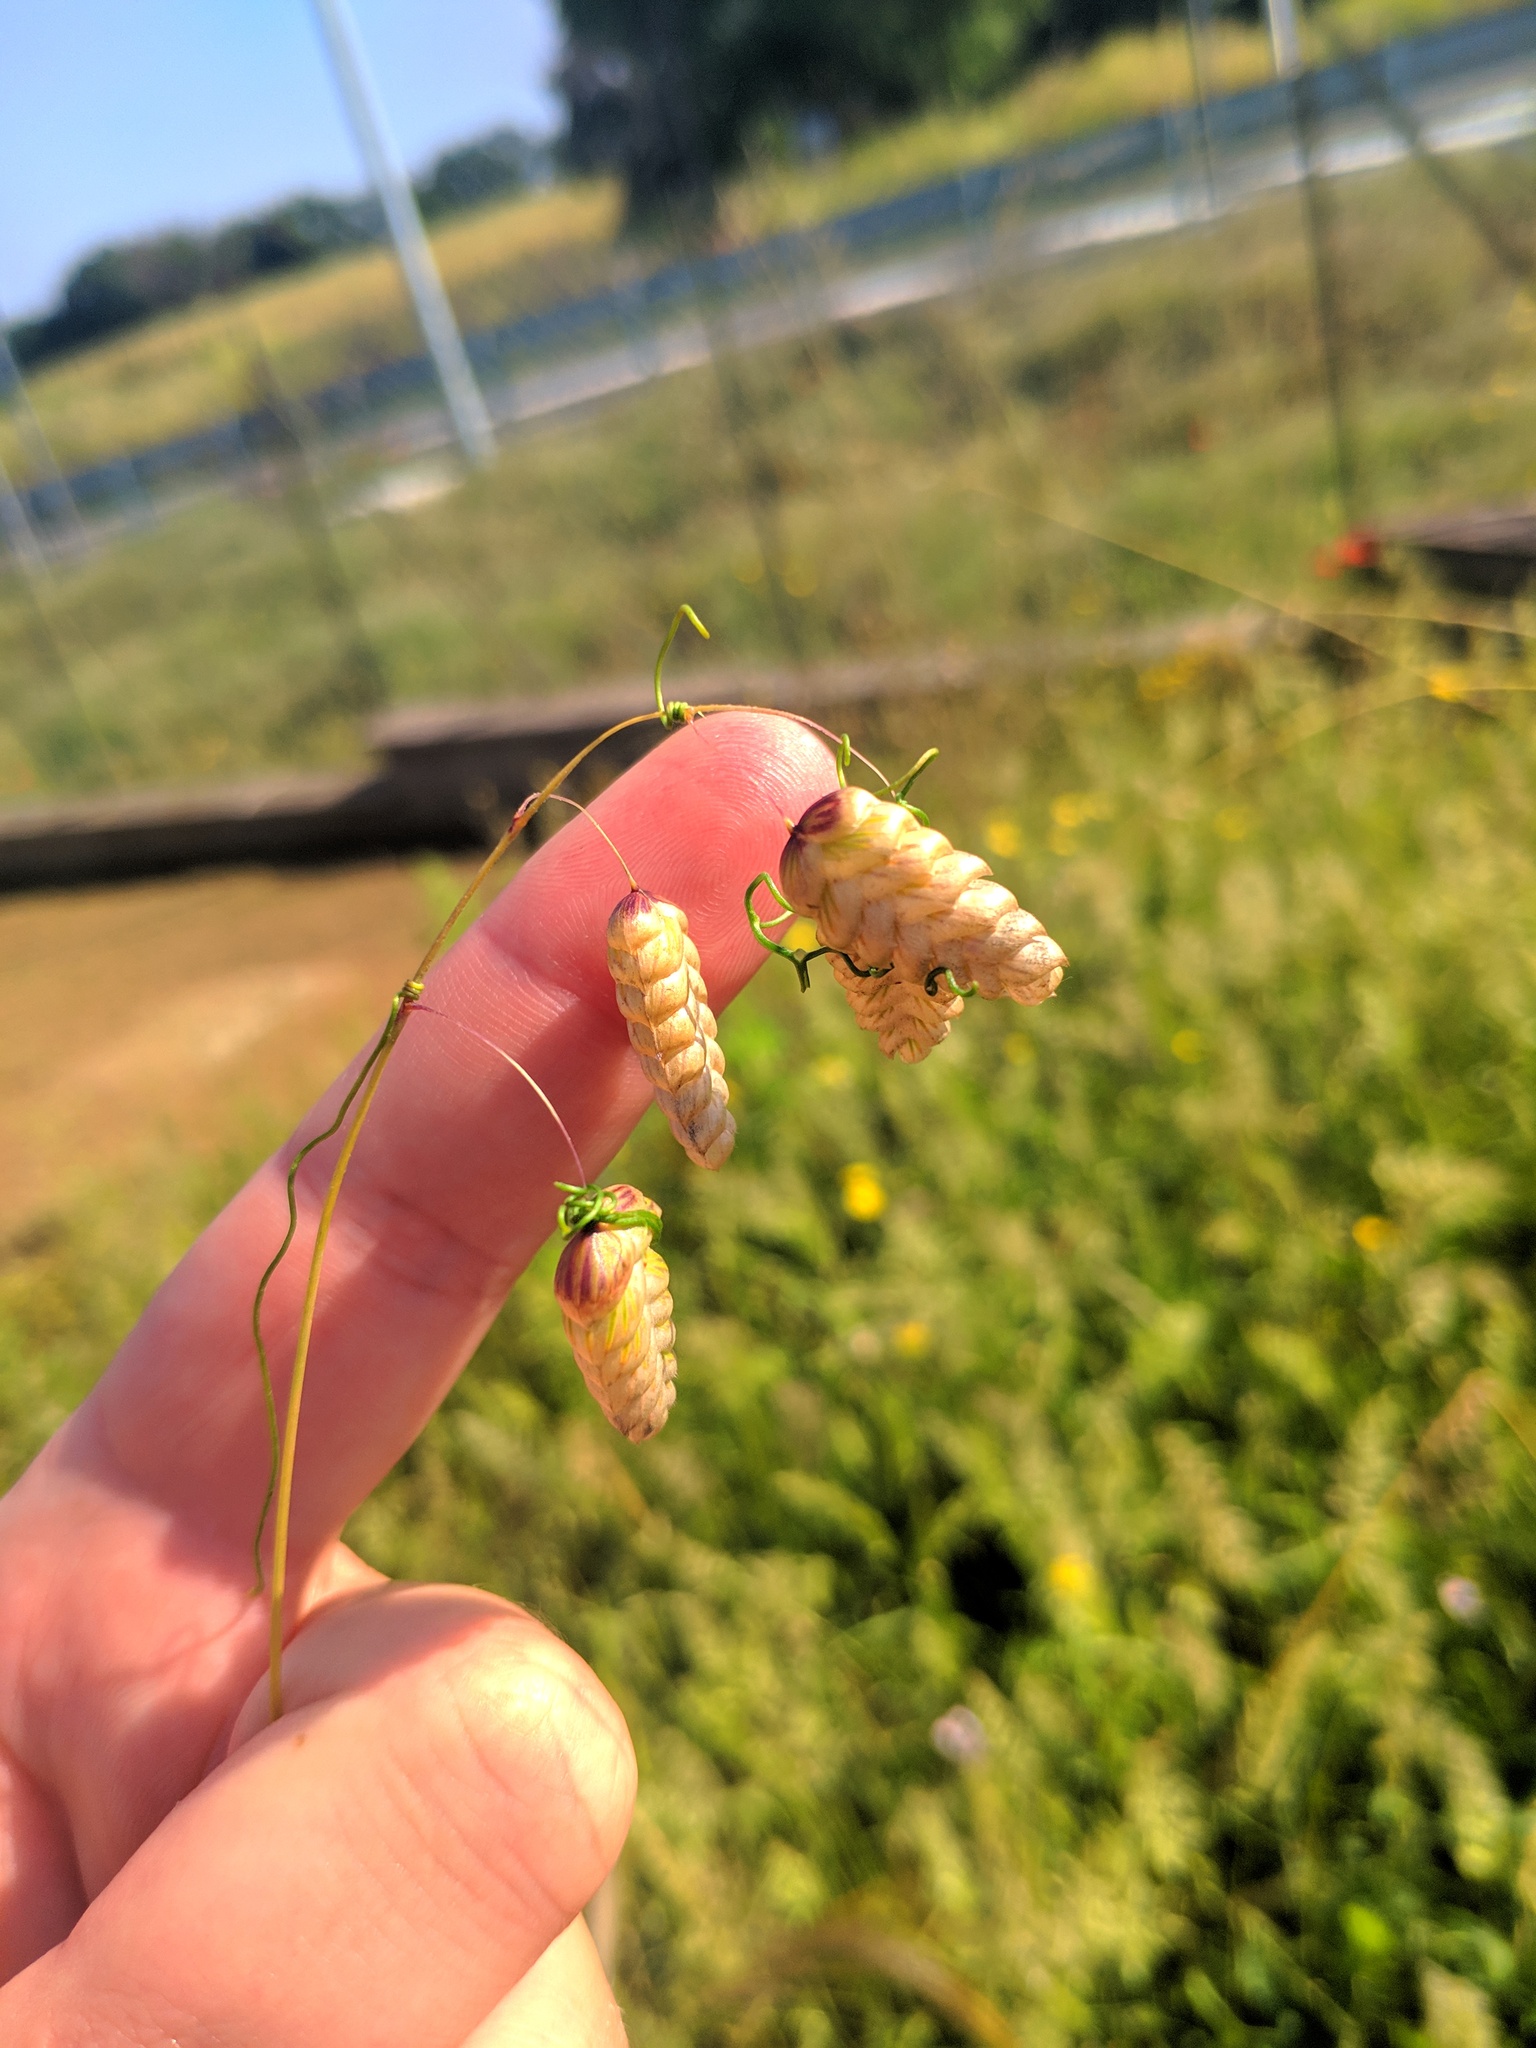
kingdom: Plantae
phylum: Tracheophyta
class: Liliopsida
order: Poales
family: Poaceae
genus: Briza
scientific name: Briza maxima
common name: Big quakinggrass
